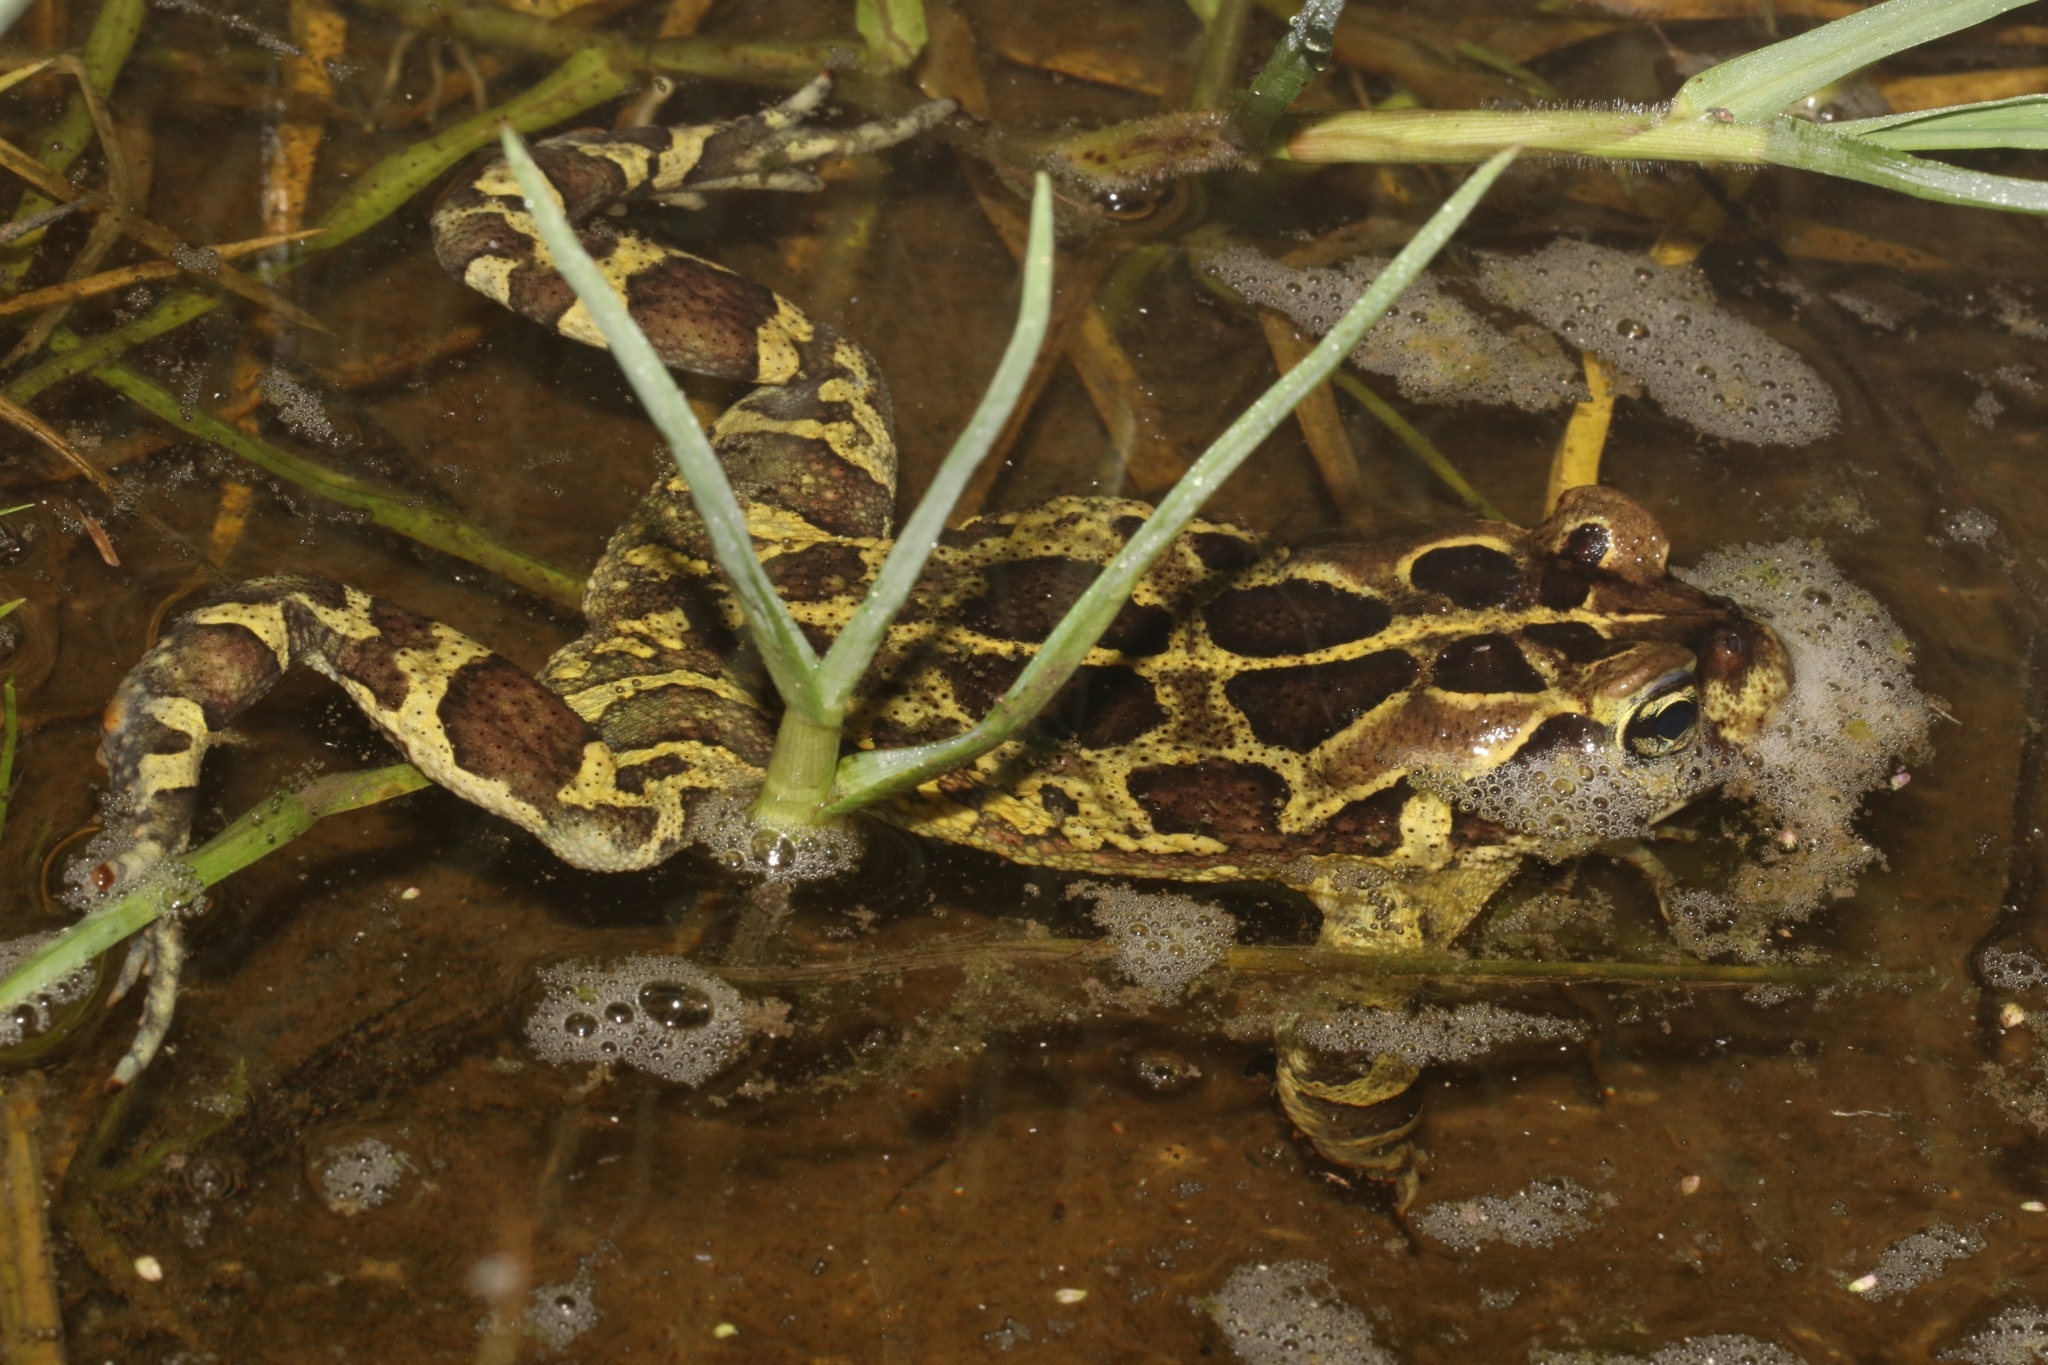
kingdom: Animalia
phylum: Chordata
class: Amphibia
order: Anura
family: Bufonidae
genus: Sclerophrys
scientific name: Sclerophrys pantherina
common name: Panther toad
